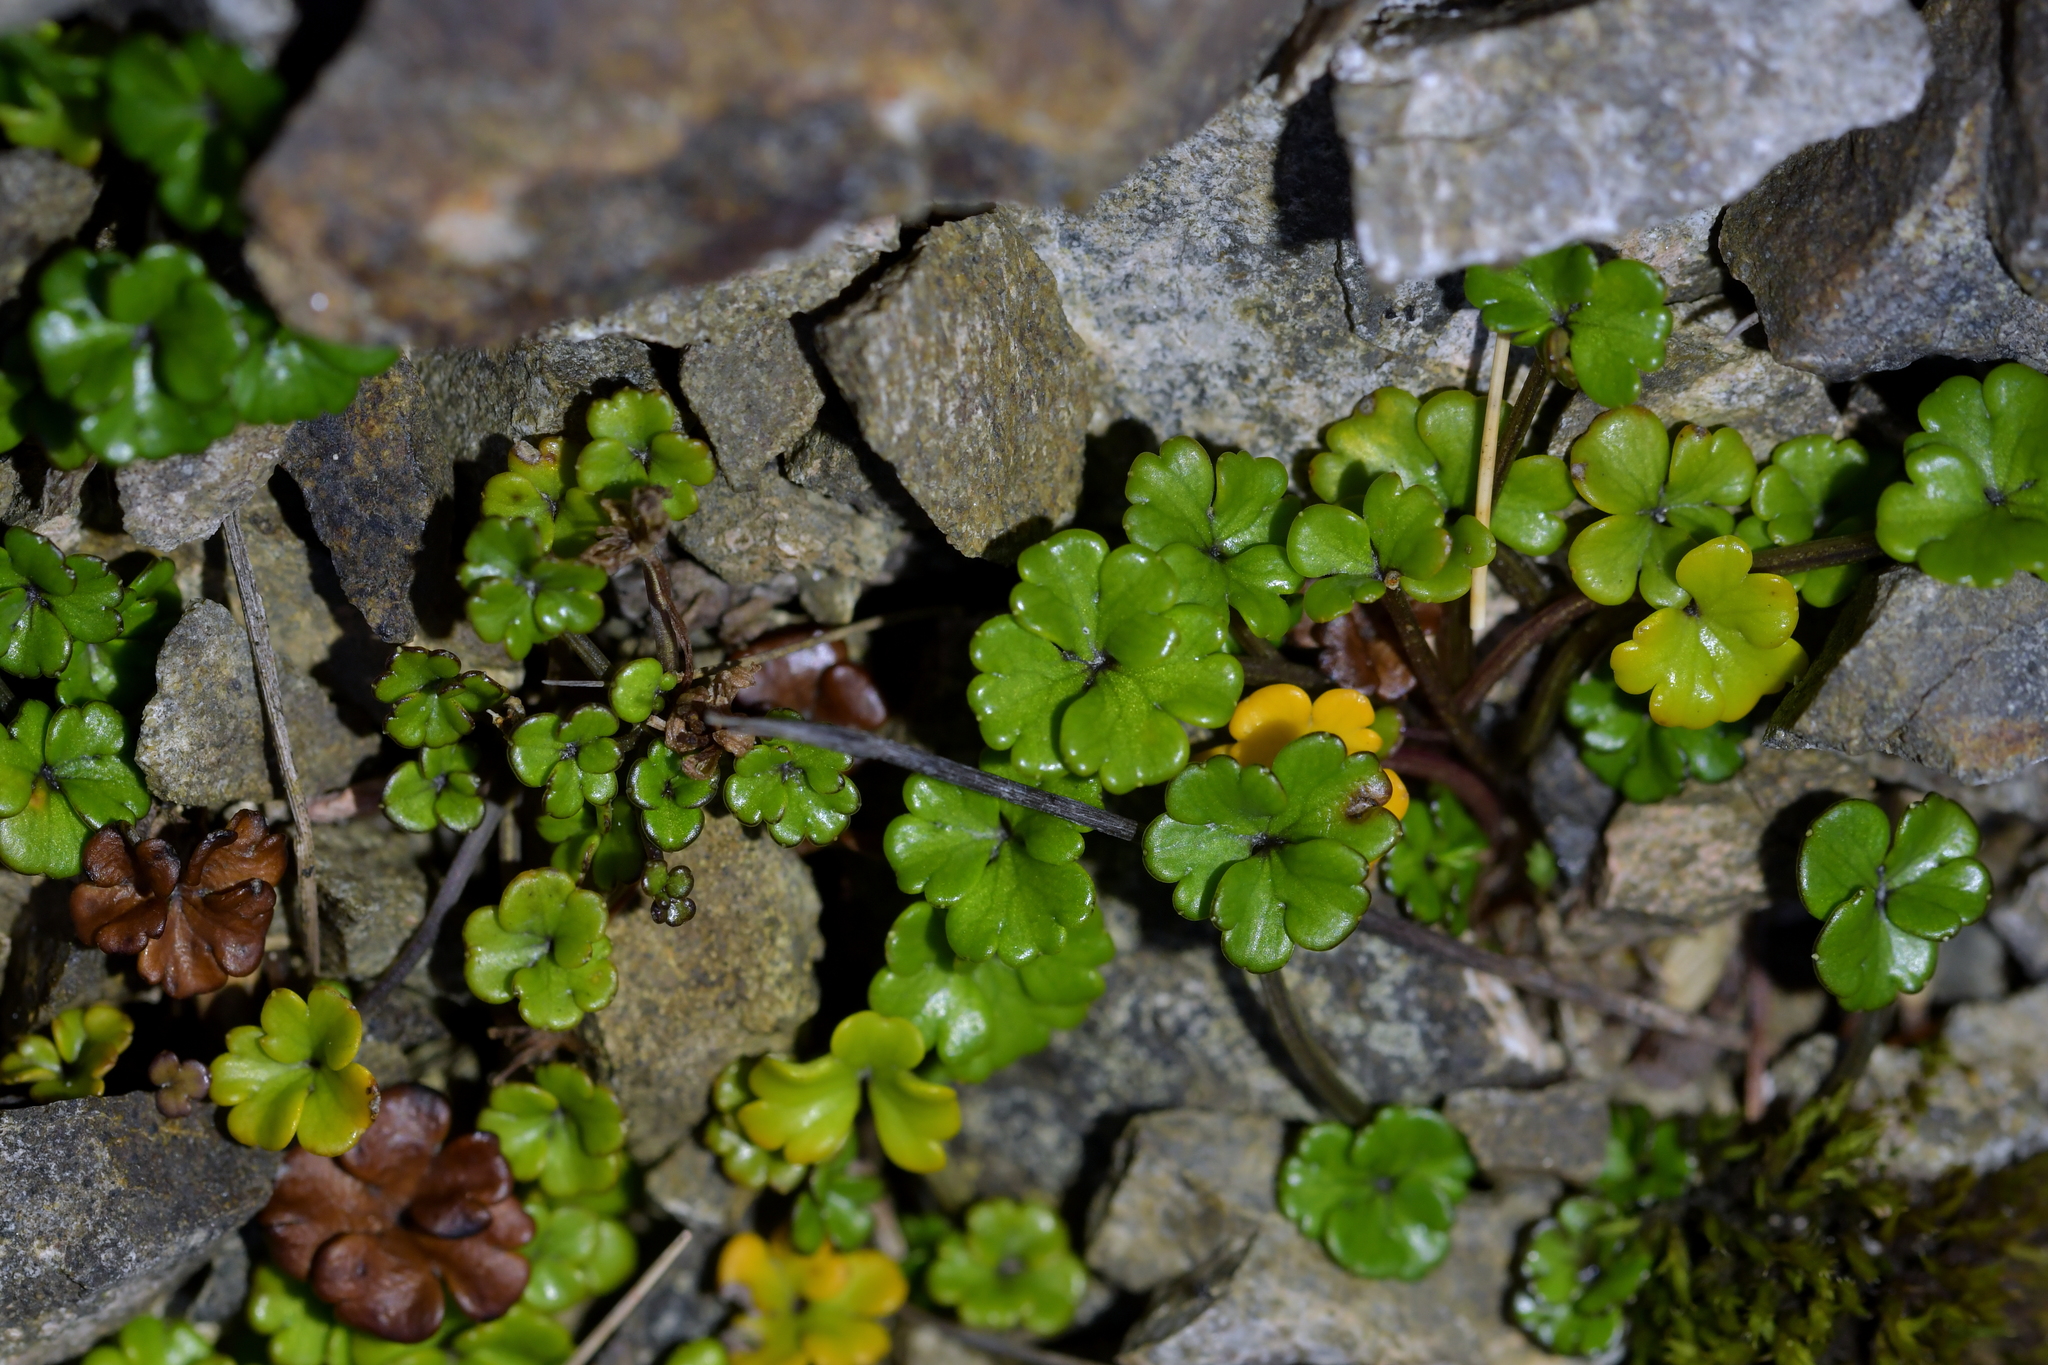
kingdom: Plantae
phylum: Tracheophyta
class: Magnoliopsida
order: Apiales
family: Apiaceae
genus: Azorella
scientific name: Azorella hydrocotyloides
